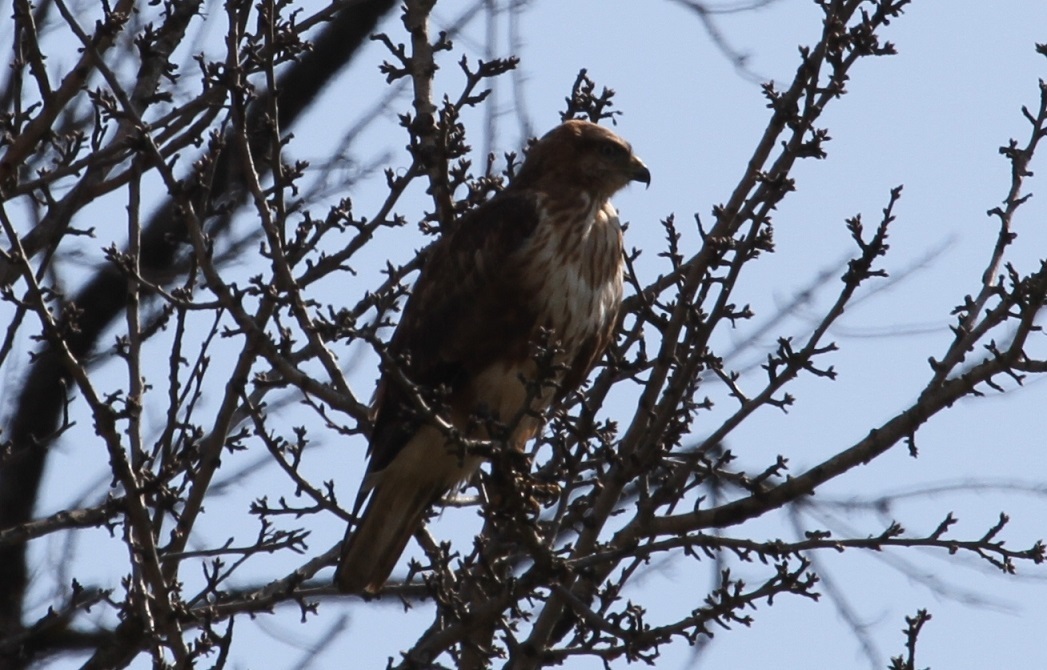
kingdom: Animalia
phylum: Chordata
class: Aves
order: Accipitriformes
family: Accipitridae
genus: Buteo
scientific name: Buteo rufinus
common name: Long-legged buzzard
